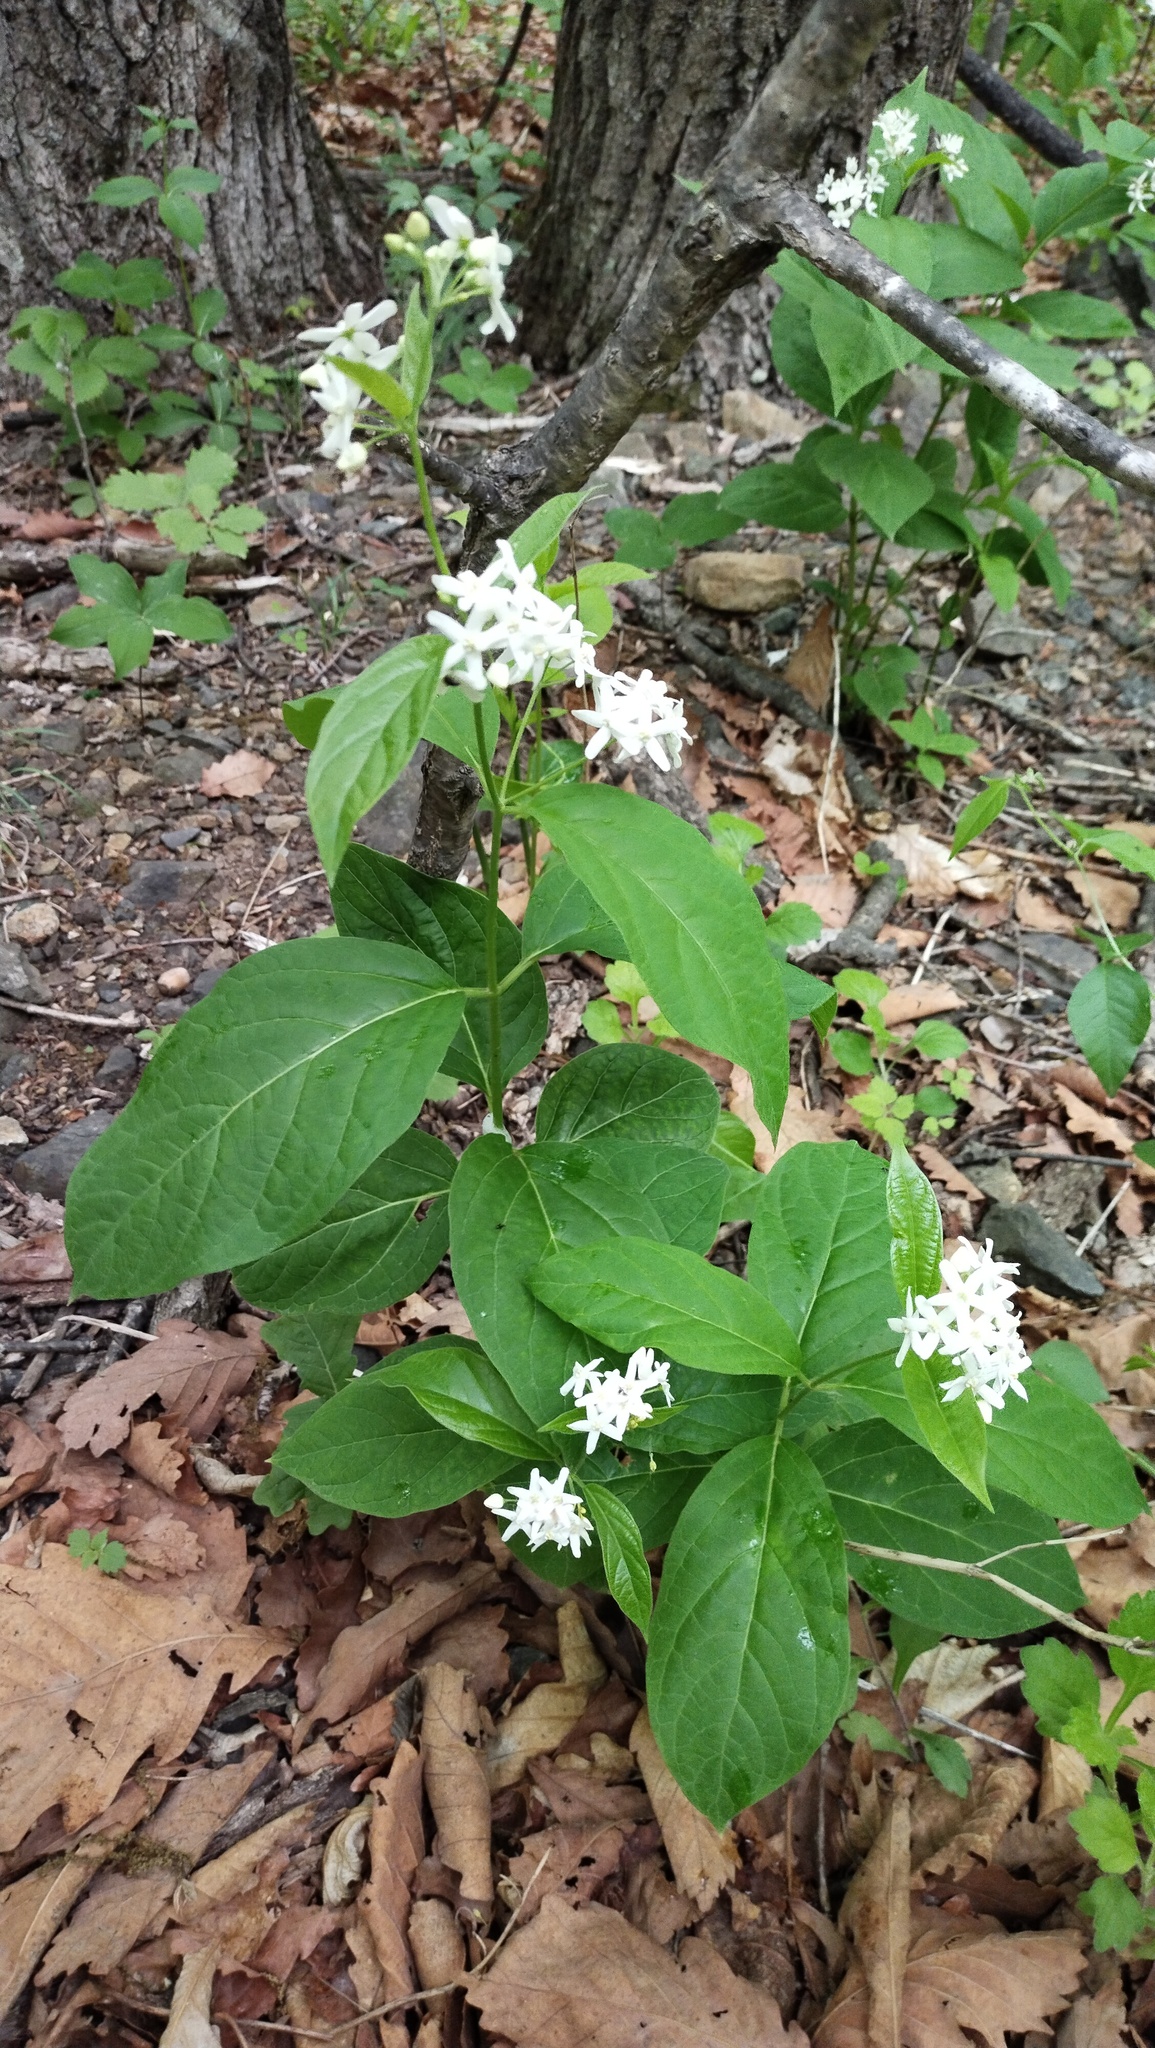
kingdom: Plantae
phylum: Tracheophyta
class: Magnoliopsida
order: Gentianales
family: Apocynaceae
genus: Vincetoxicum
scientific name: Vincetoxicum ascyrifolium
